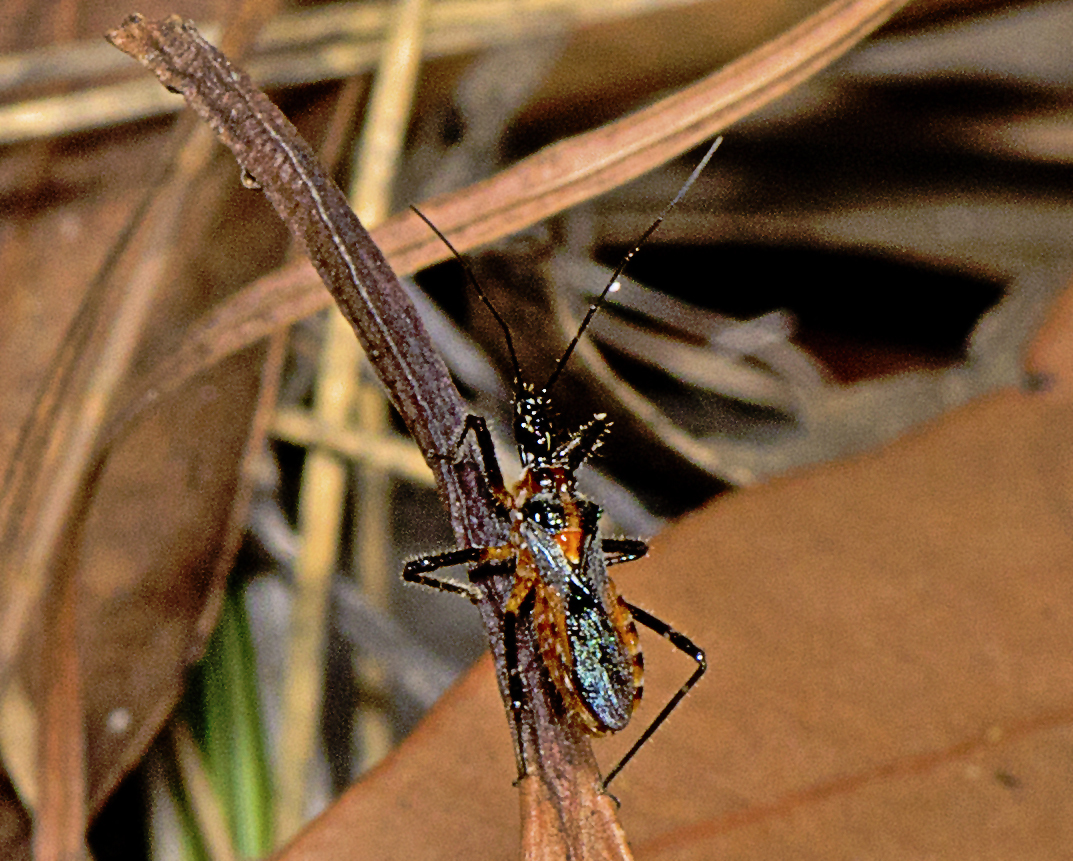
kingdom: Animalia
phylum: Arthropoda
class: Insecta
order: Hemiptera
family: Reduviidae
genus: Trachylestes
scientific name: Trachylestes aspericollis
